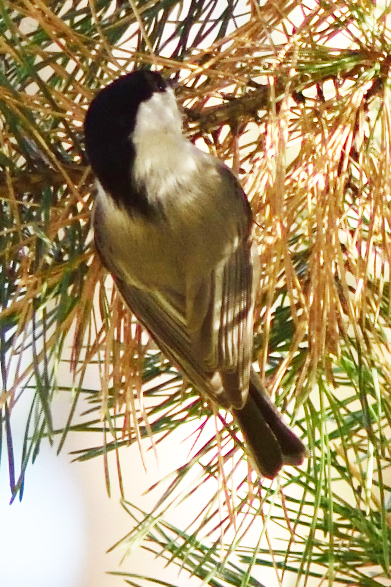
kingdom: Animalia
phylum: Chordata
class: Aves
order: Passeriformes
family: Paridae
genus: Poecile
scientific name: Poecile montanus
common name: Willow tit
